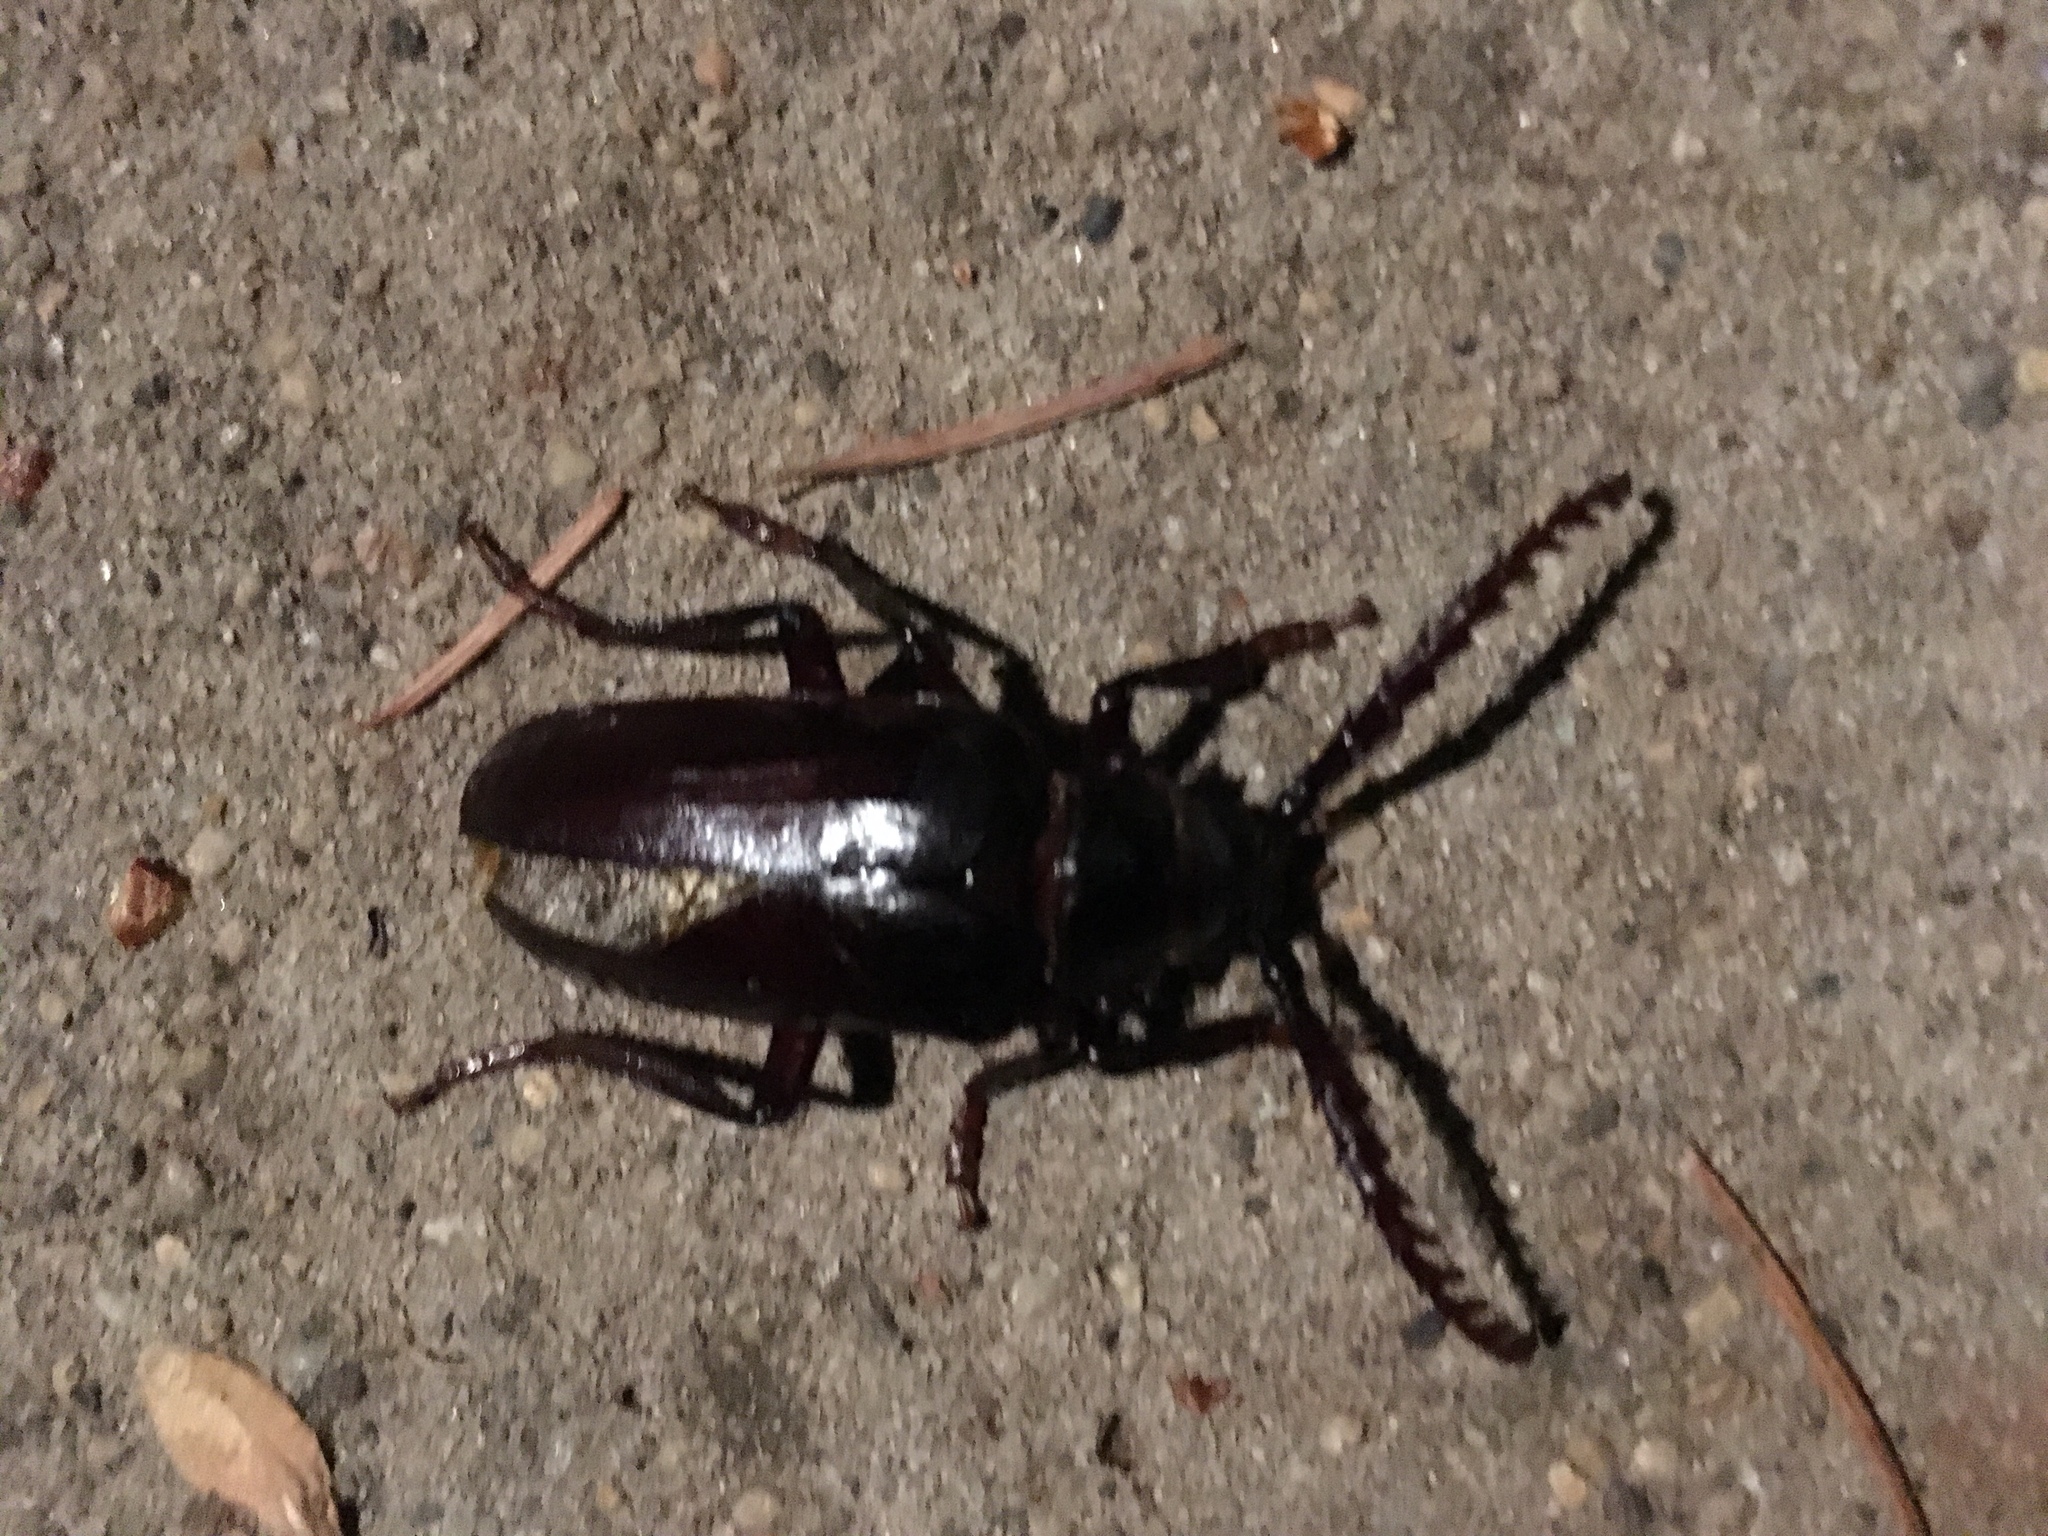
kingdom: Animalia
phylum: Arthropoda
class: Insecta
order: Coleoptera
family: Cerambycidae
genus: Prionus
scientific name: Prionus californicus
